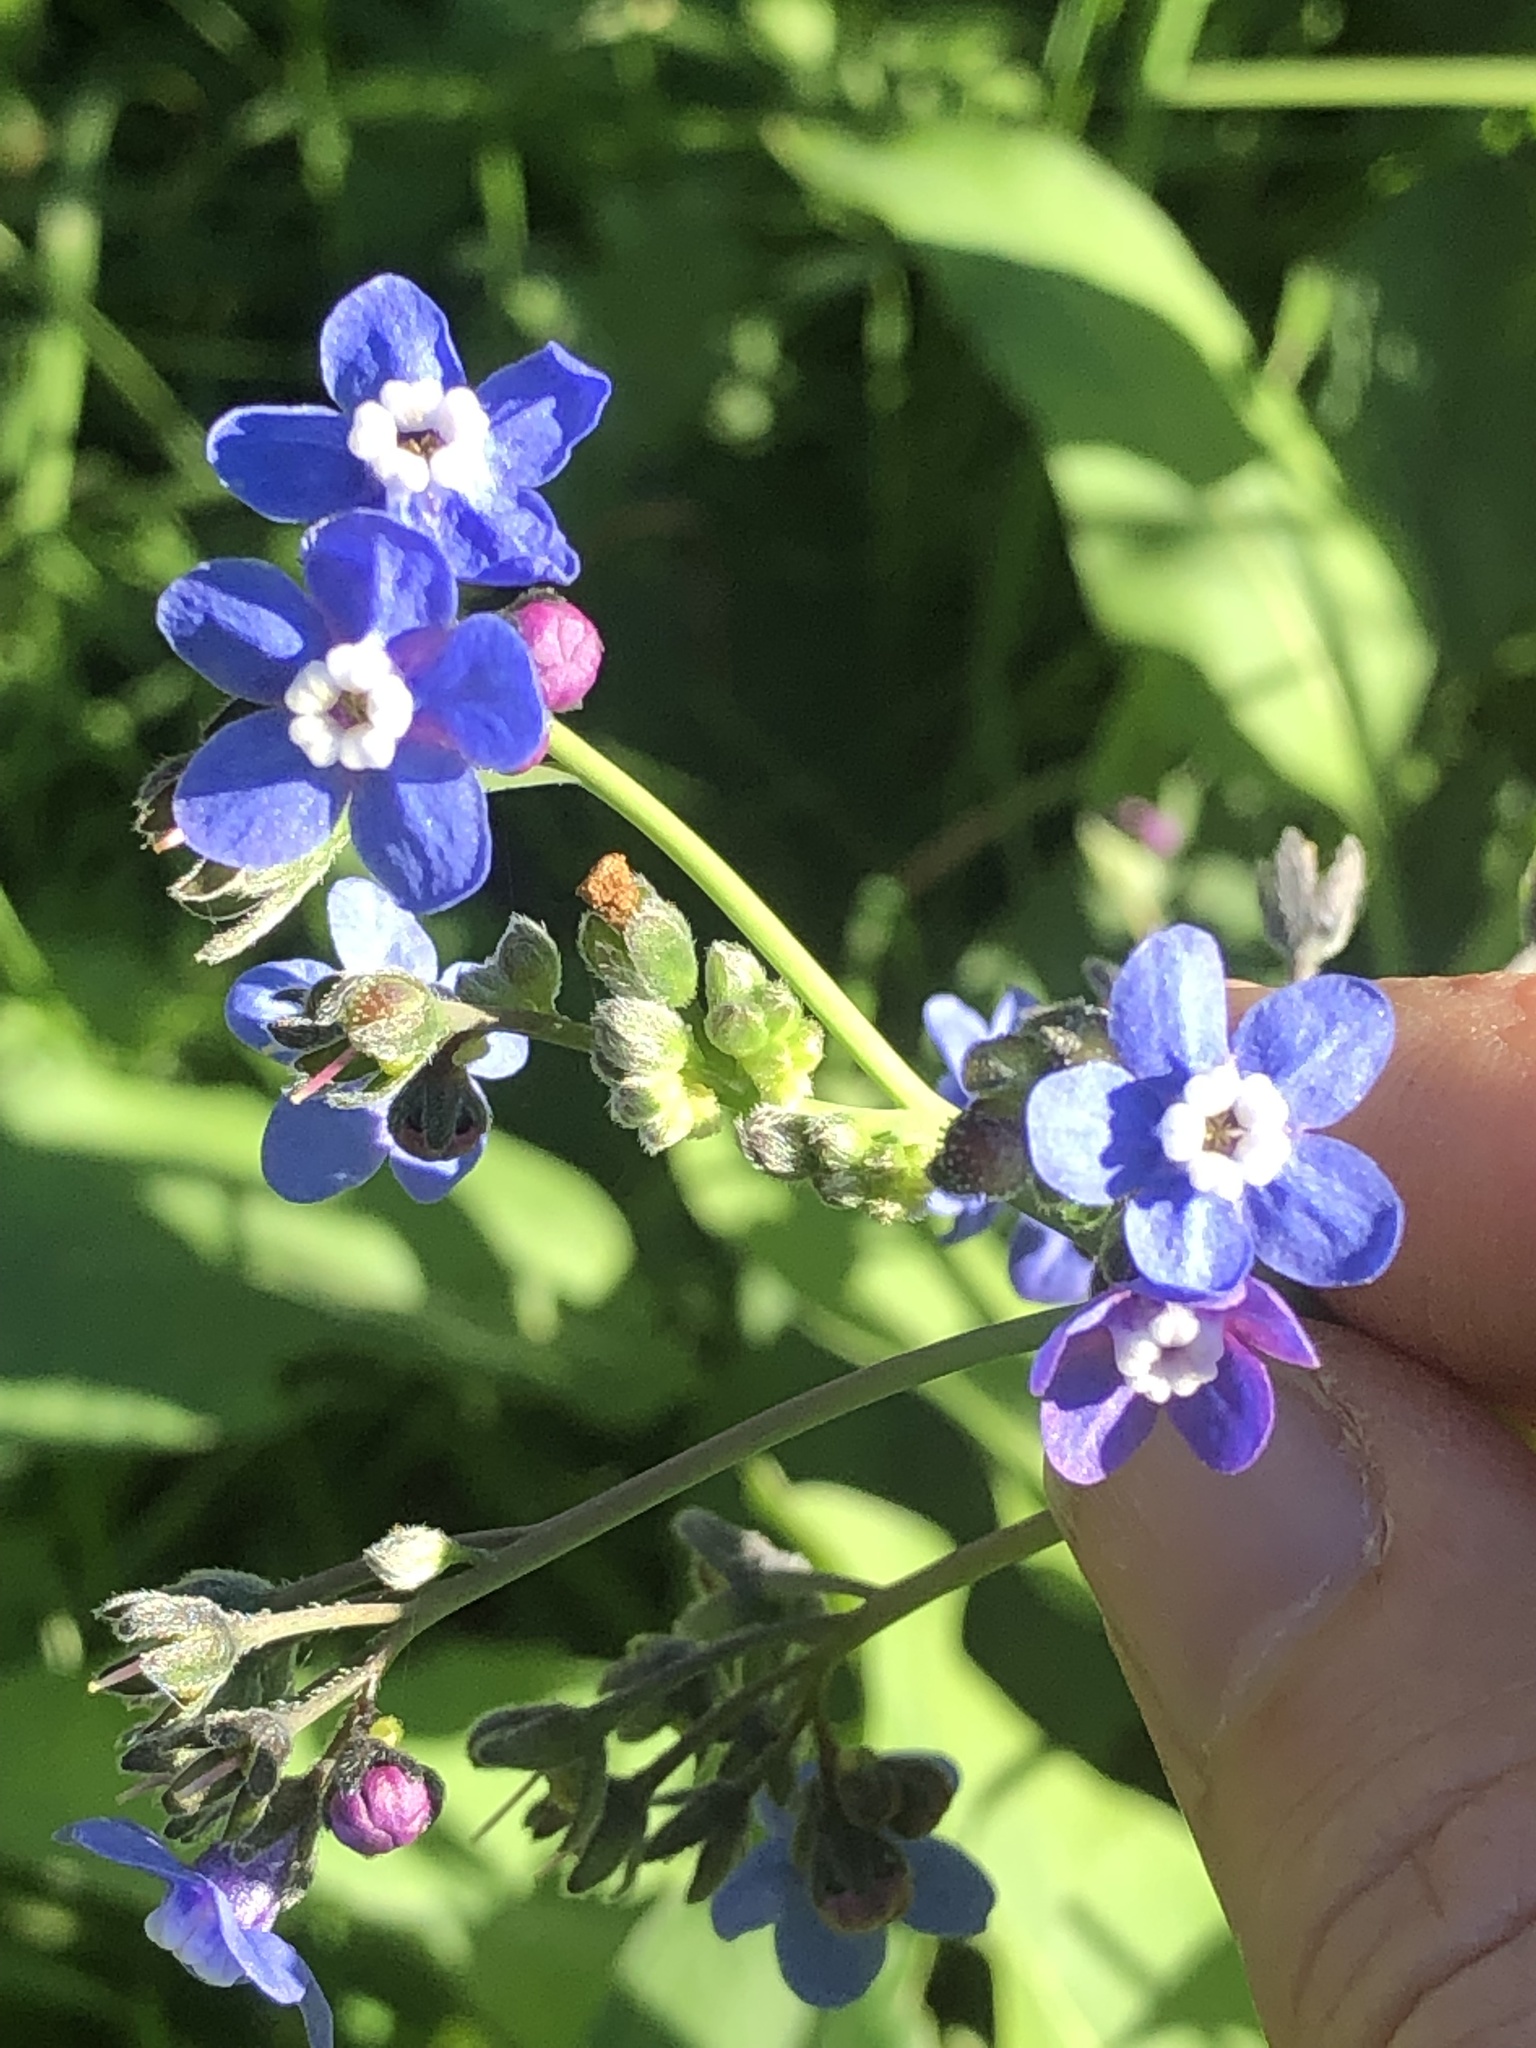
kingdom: Plantae
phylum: Tracheophyta
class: Magnoliopsida
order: Boraginales
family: Boraginaceae
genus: Adelinia
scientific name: Adelinia grande
